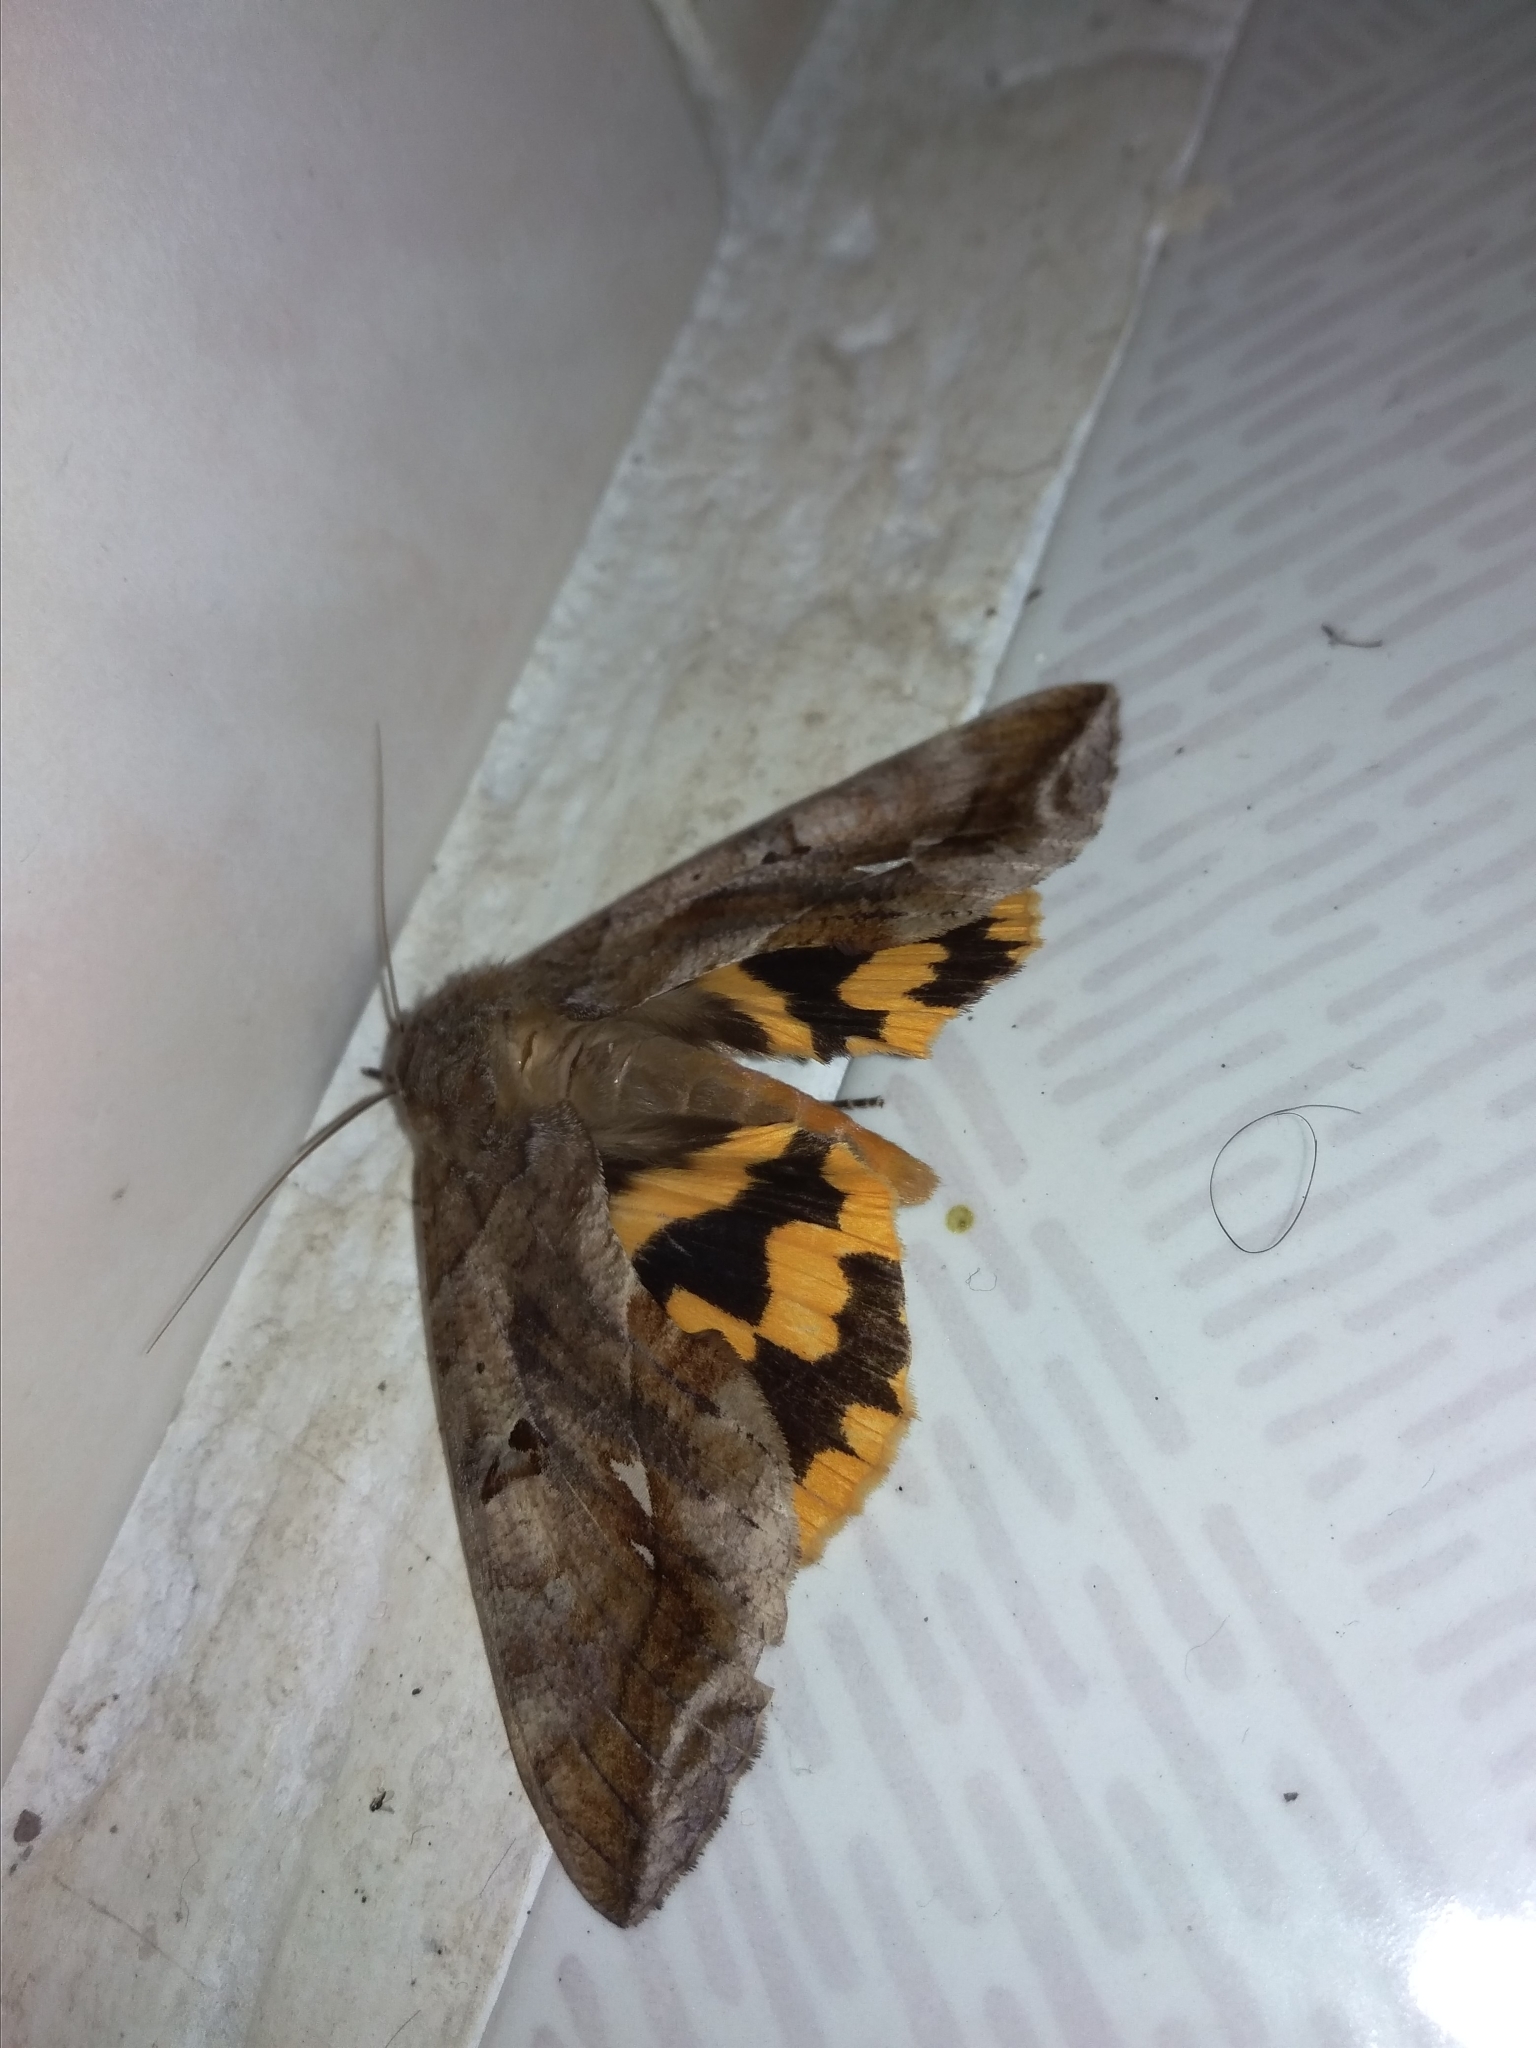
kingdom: Animalia
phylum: Arthropoda
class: Insecta
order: Lepidoptera
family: Erebidae
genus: Eudocima
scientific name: Eudocima procus
